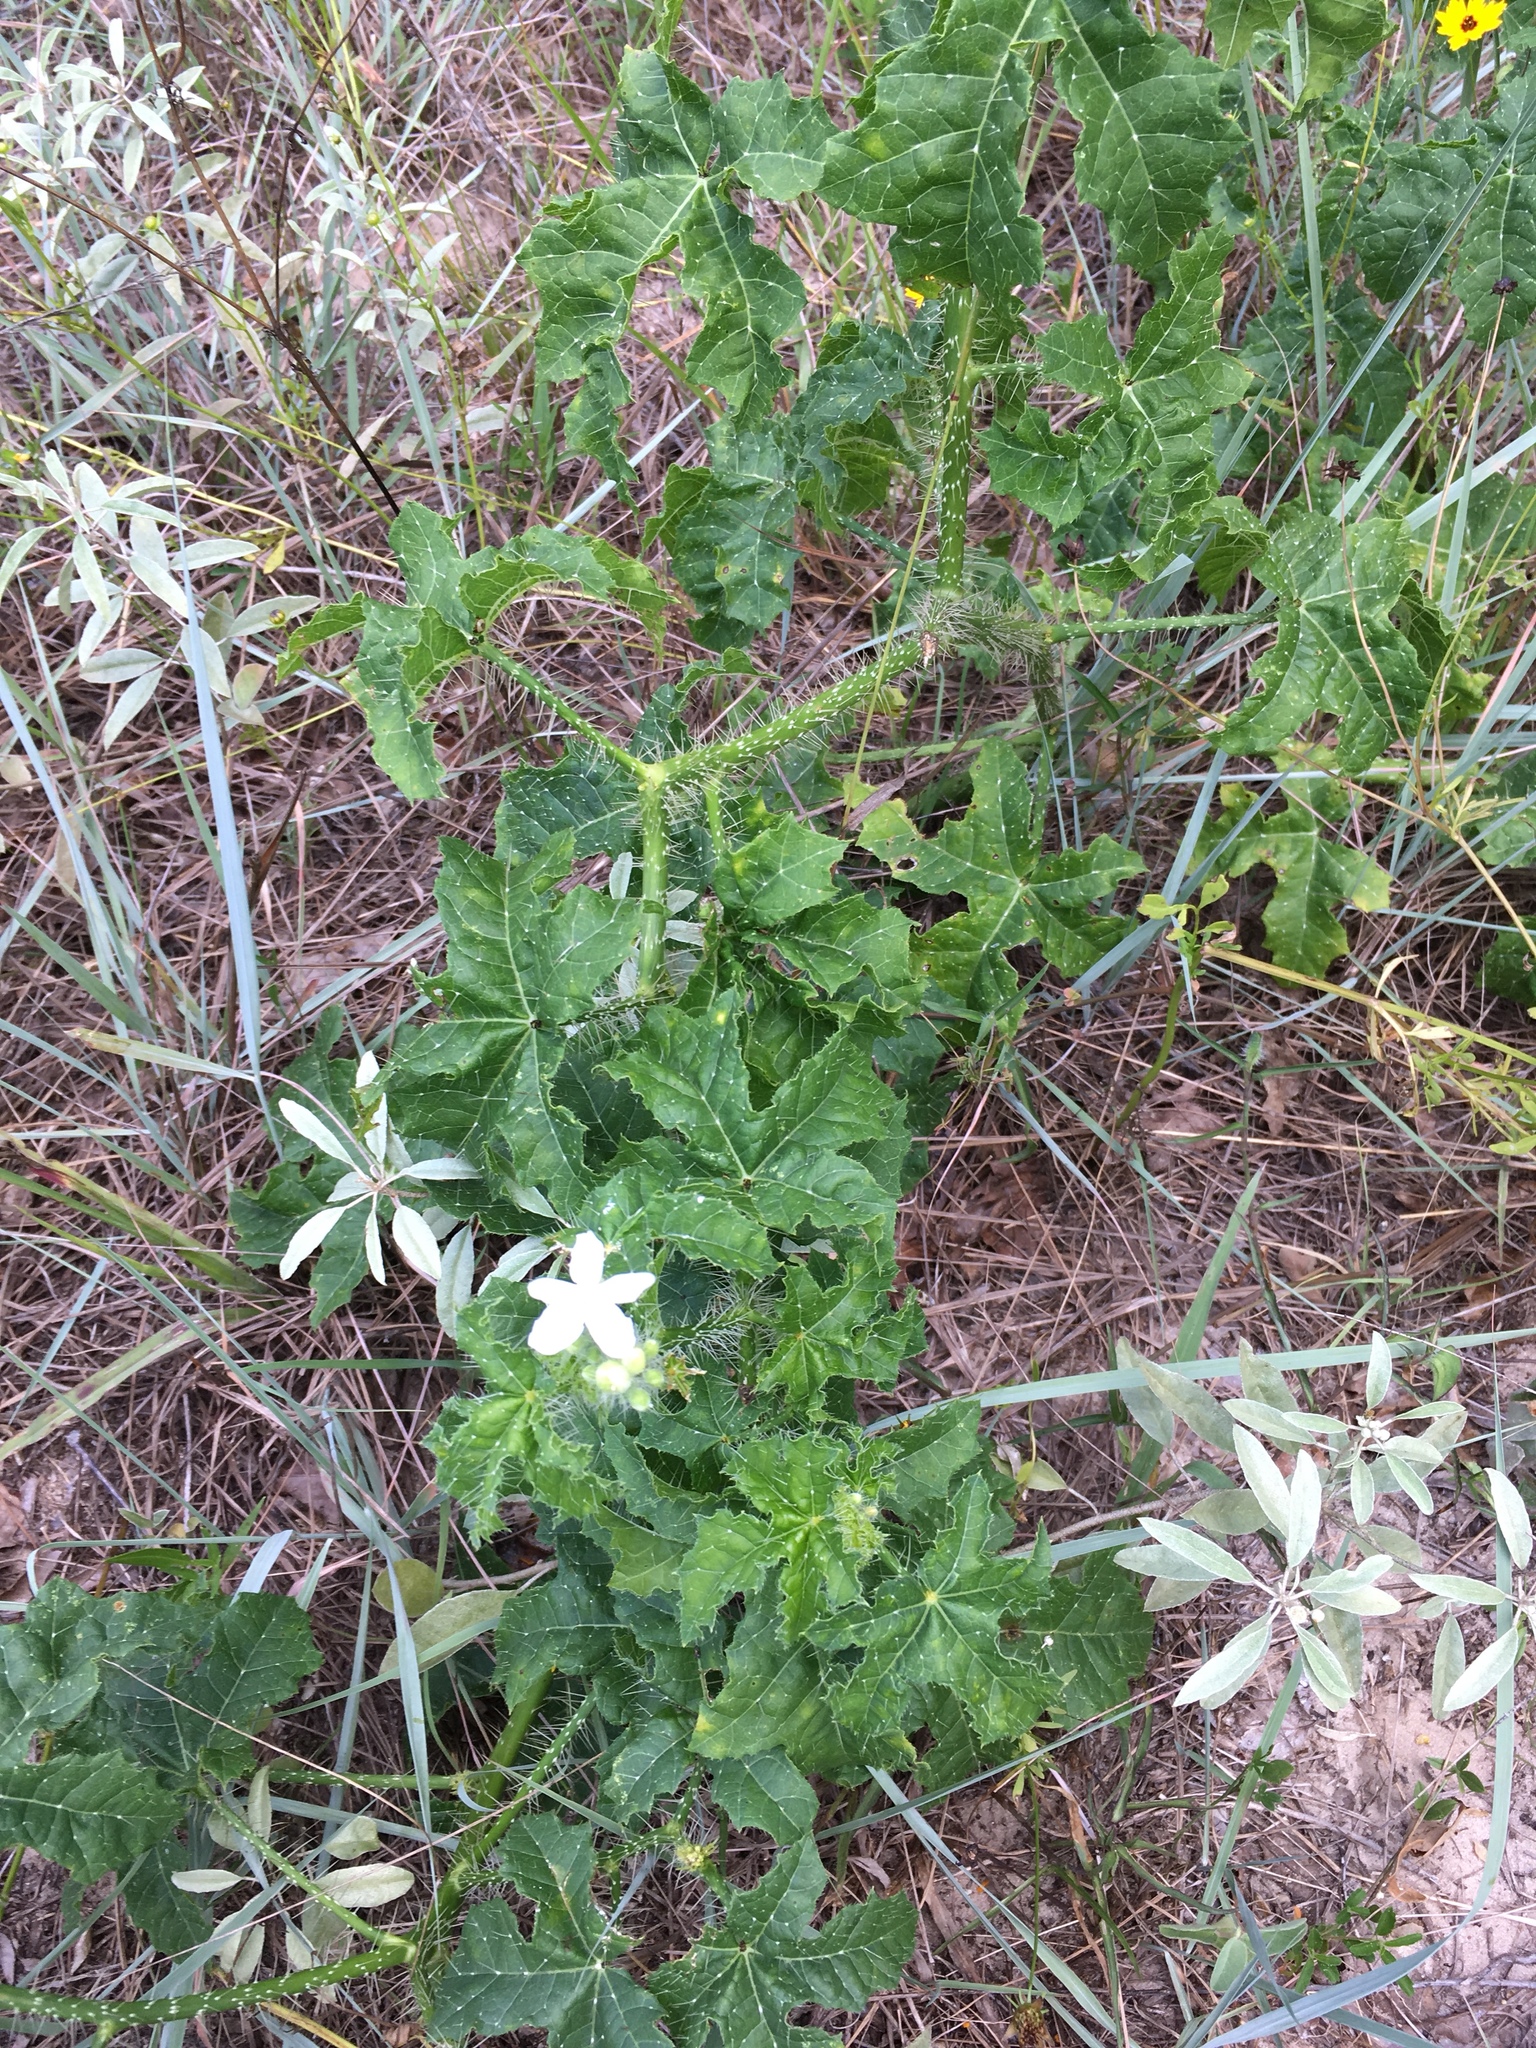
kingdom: Plantae
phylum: Tracheophyta
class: Magnoliopsida
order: Malpighiales
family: Euphorbiaceae
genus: Cnidoscolus
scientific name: Cnidoscolus texanus
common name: Texas bull-nettle
